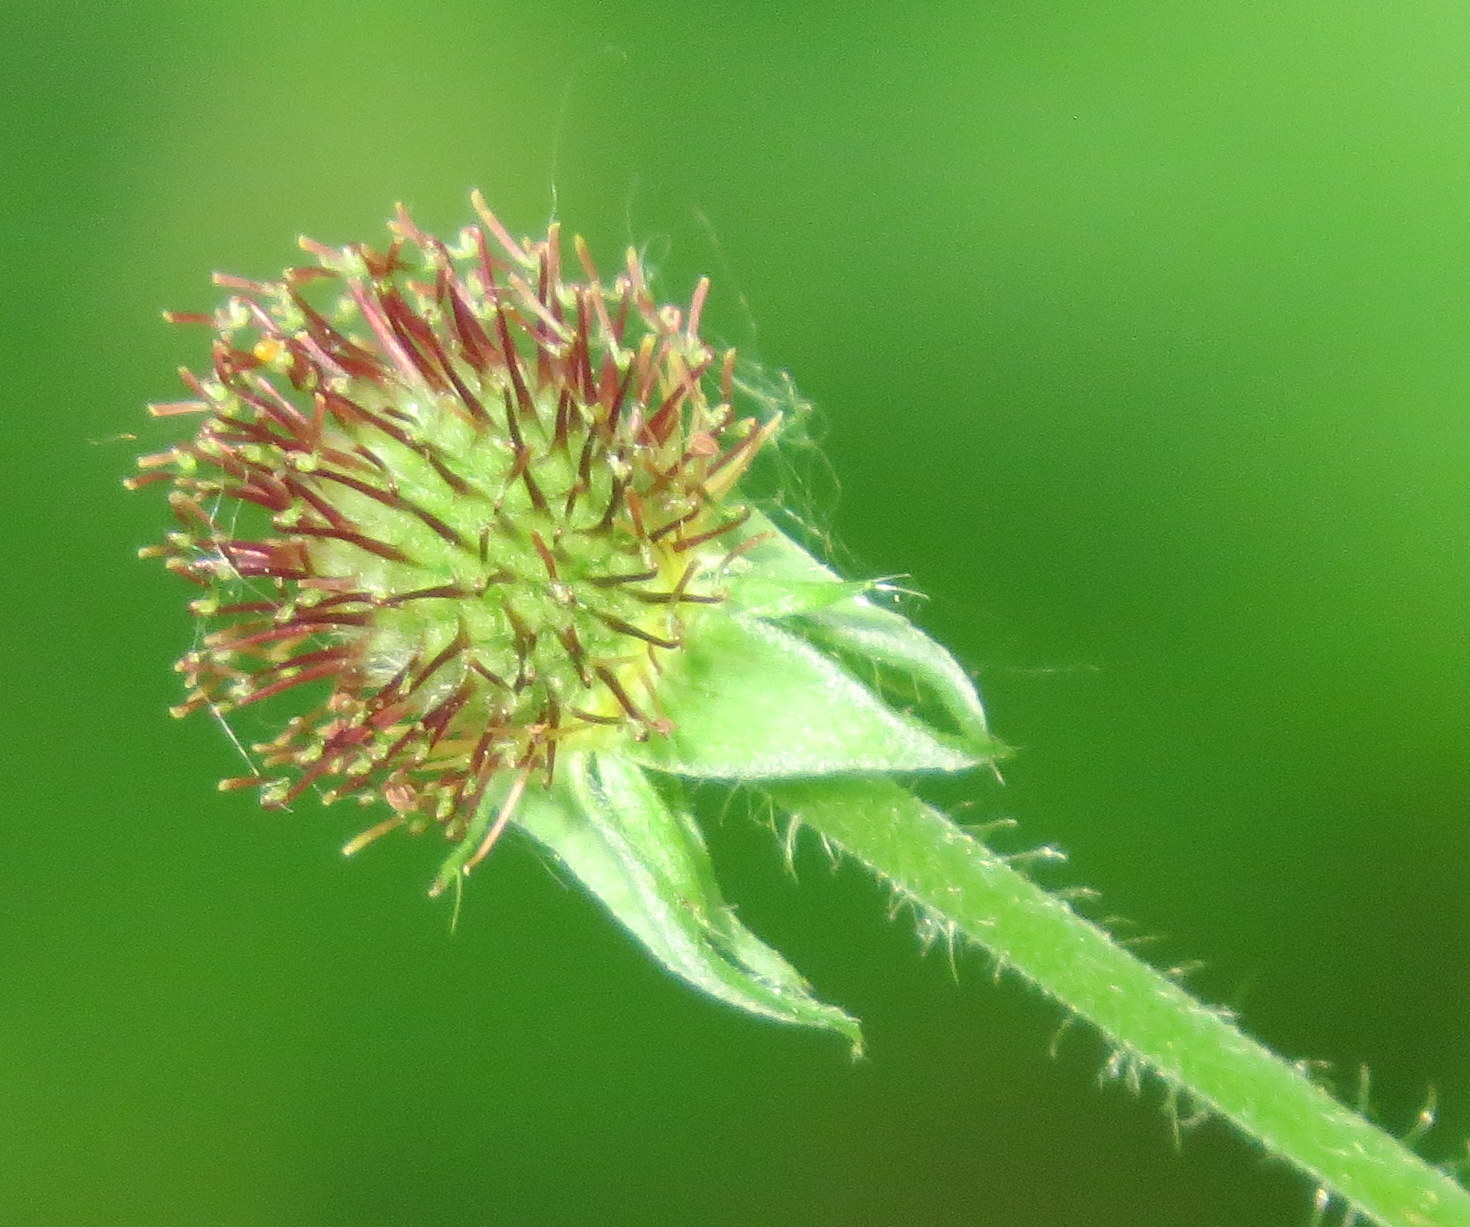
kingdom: Plantae
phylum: Tracheophyta
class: Magnoliopsida
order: Rosales
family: Rosaceae
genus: Geum
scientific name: Geum urbanum
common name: Wood avens
